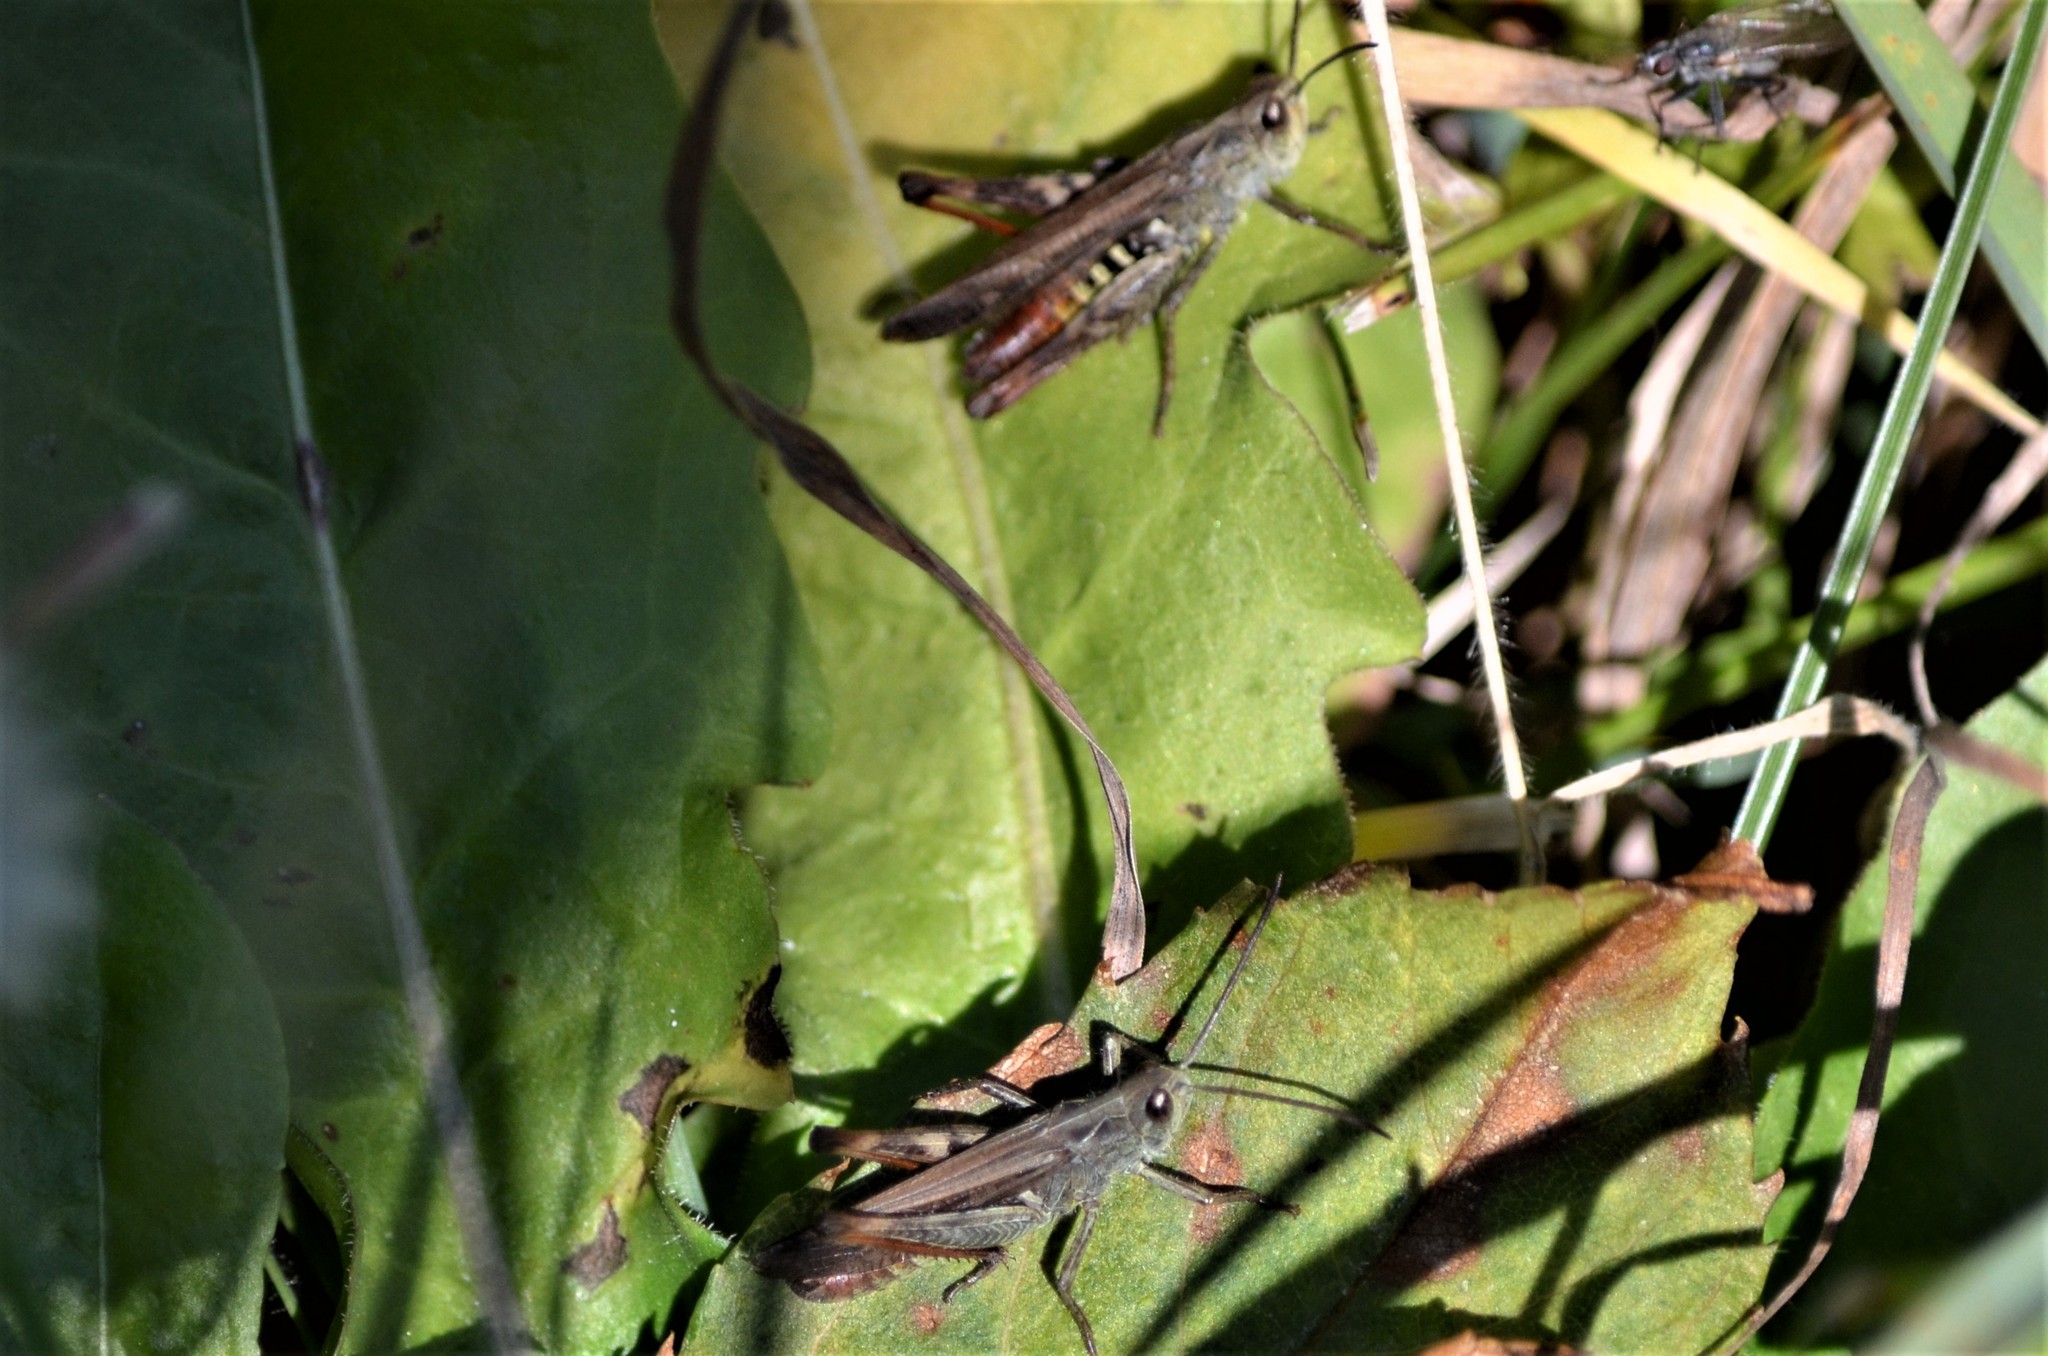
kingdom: Animalia
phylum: Arthropoda
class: Insecta
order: Orthoptera
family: Acrididae
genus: Chorthippus
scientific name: Chorthippus biguttulus
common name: Bow-winged grasshopper
